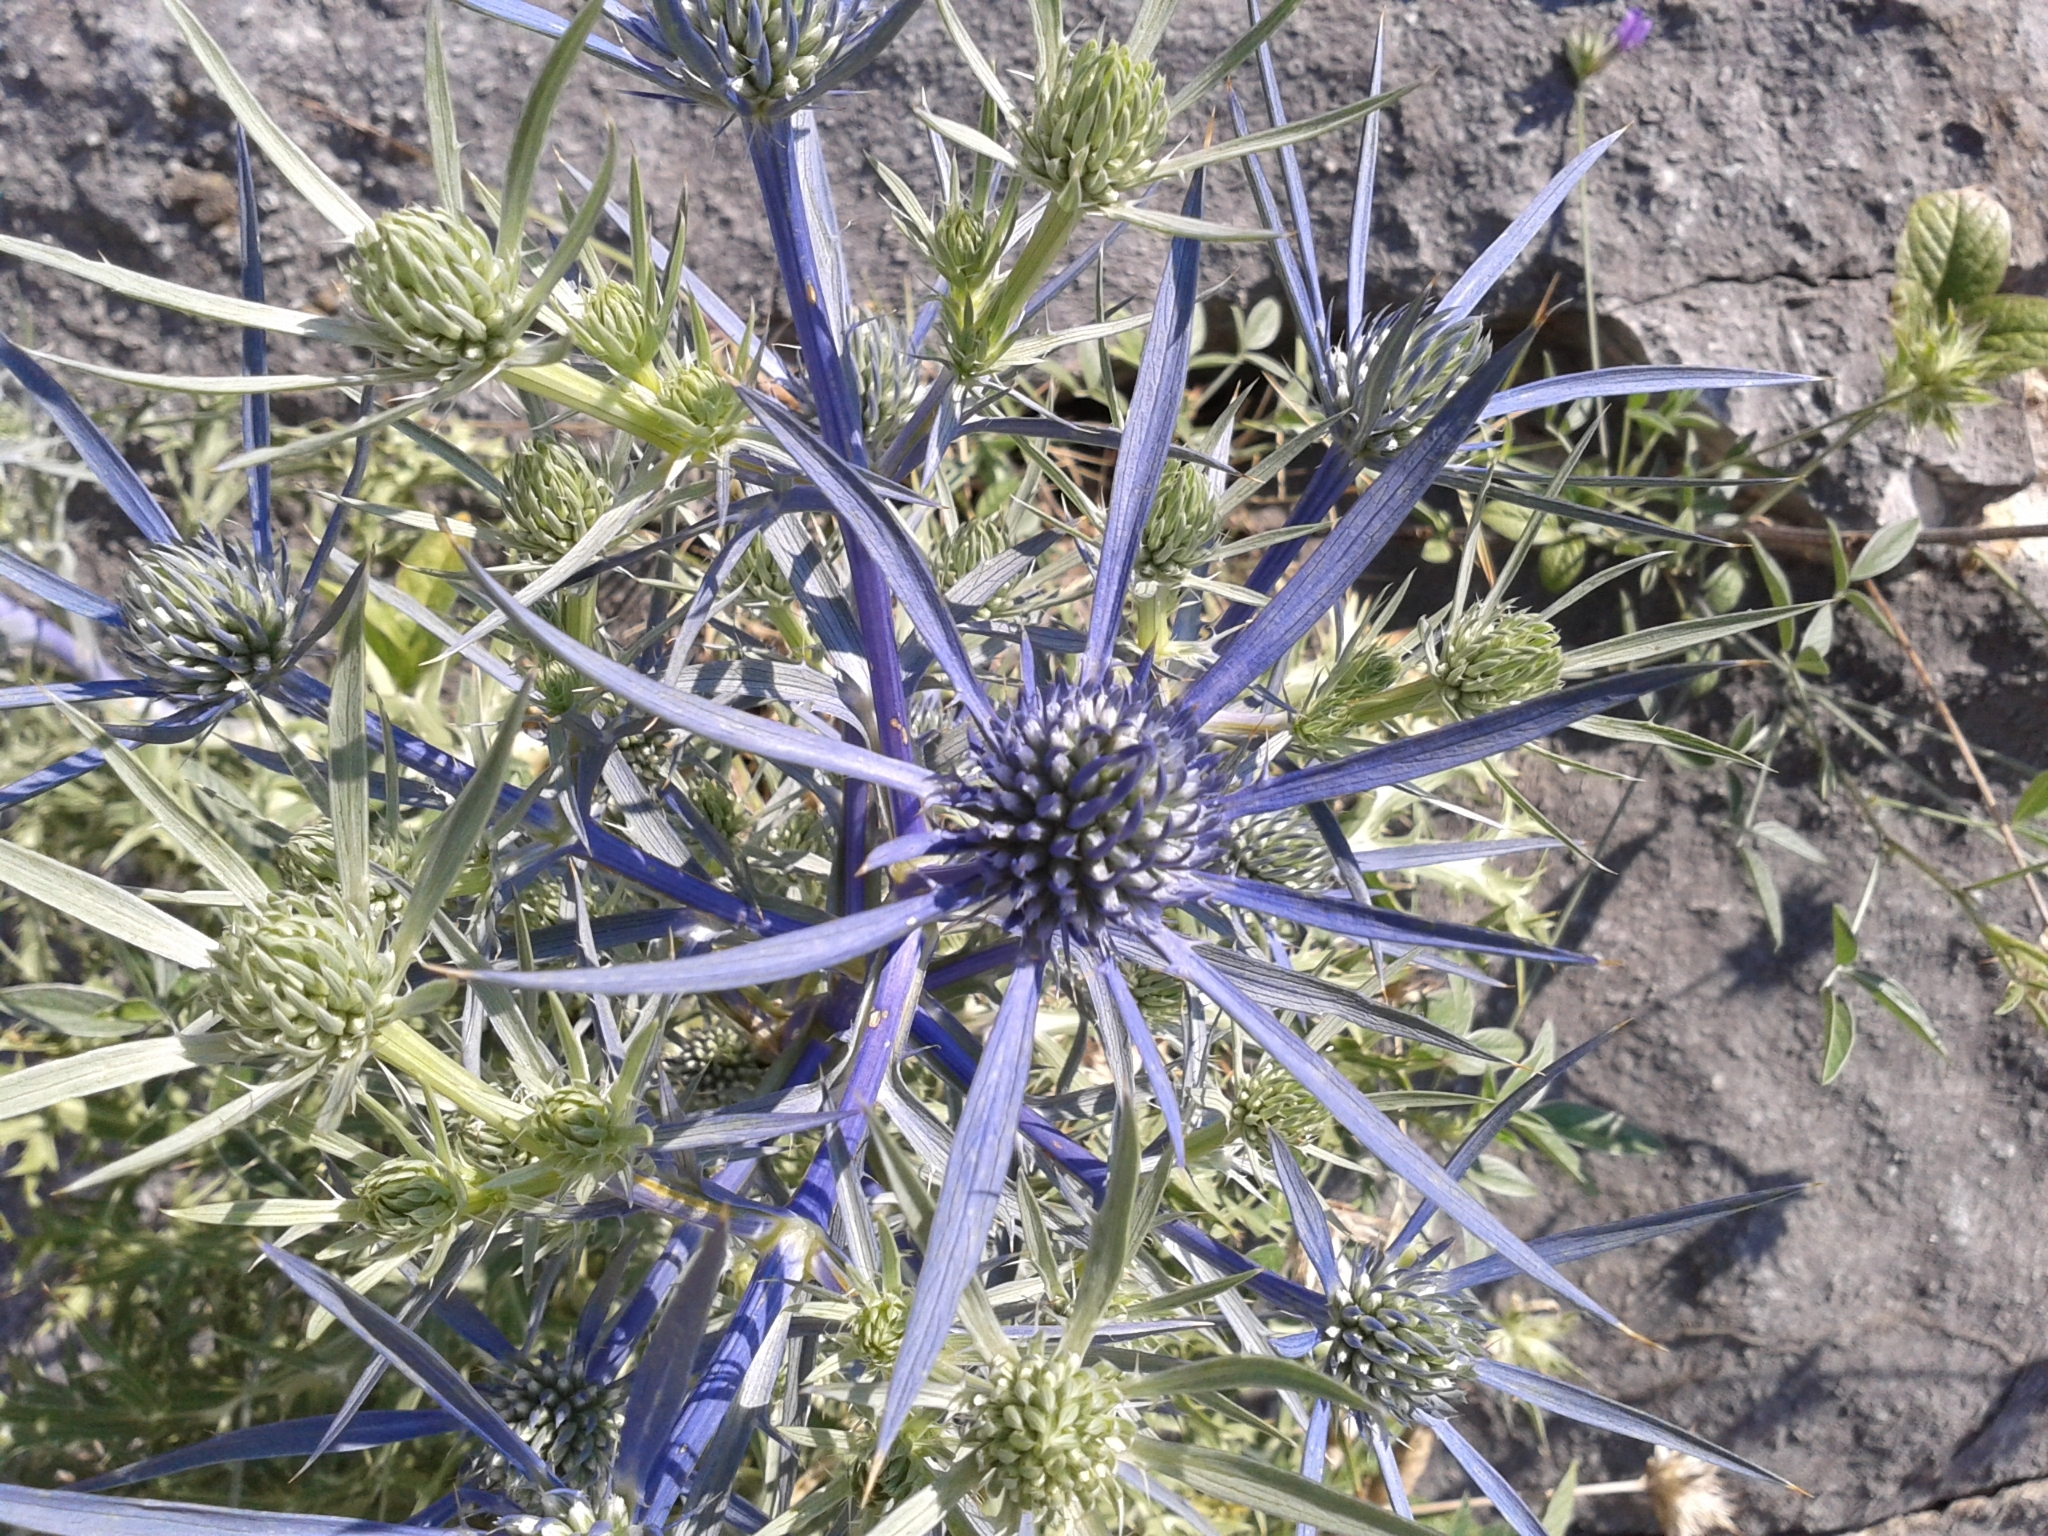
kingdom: Plantae
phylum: Tracheophyta
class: Magnoliopsida
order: Apiales
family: Apiaceae
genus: Eryngium
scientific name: Eryngium amethystinum
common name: Amethyst eryngo
